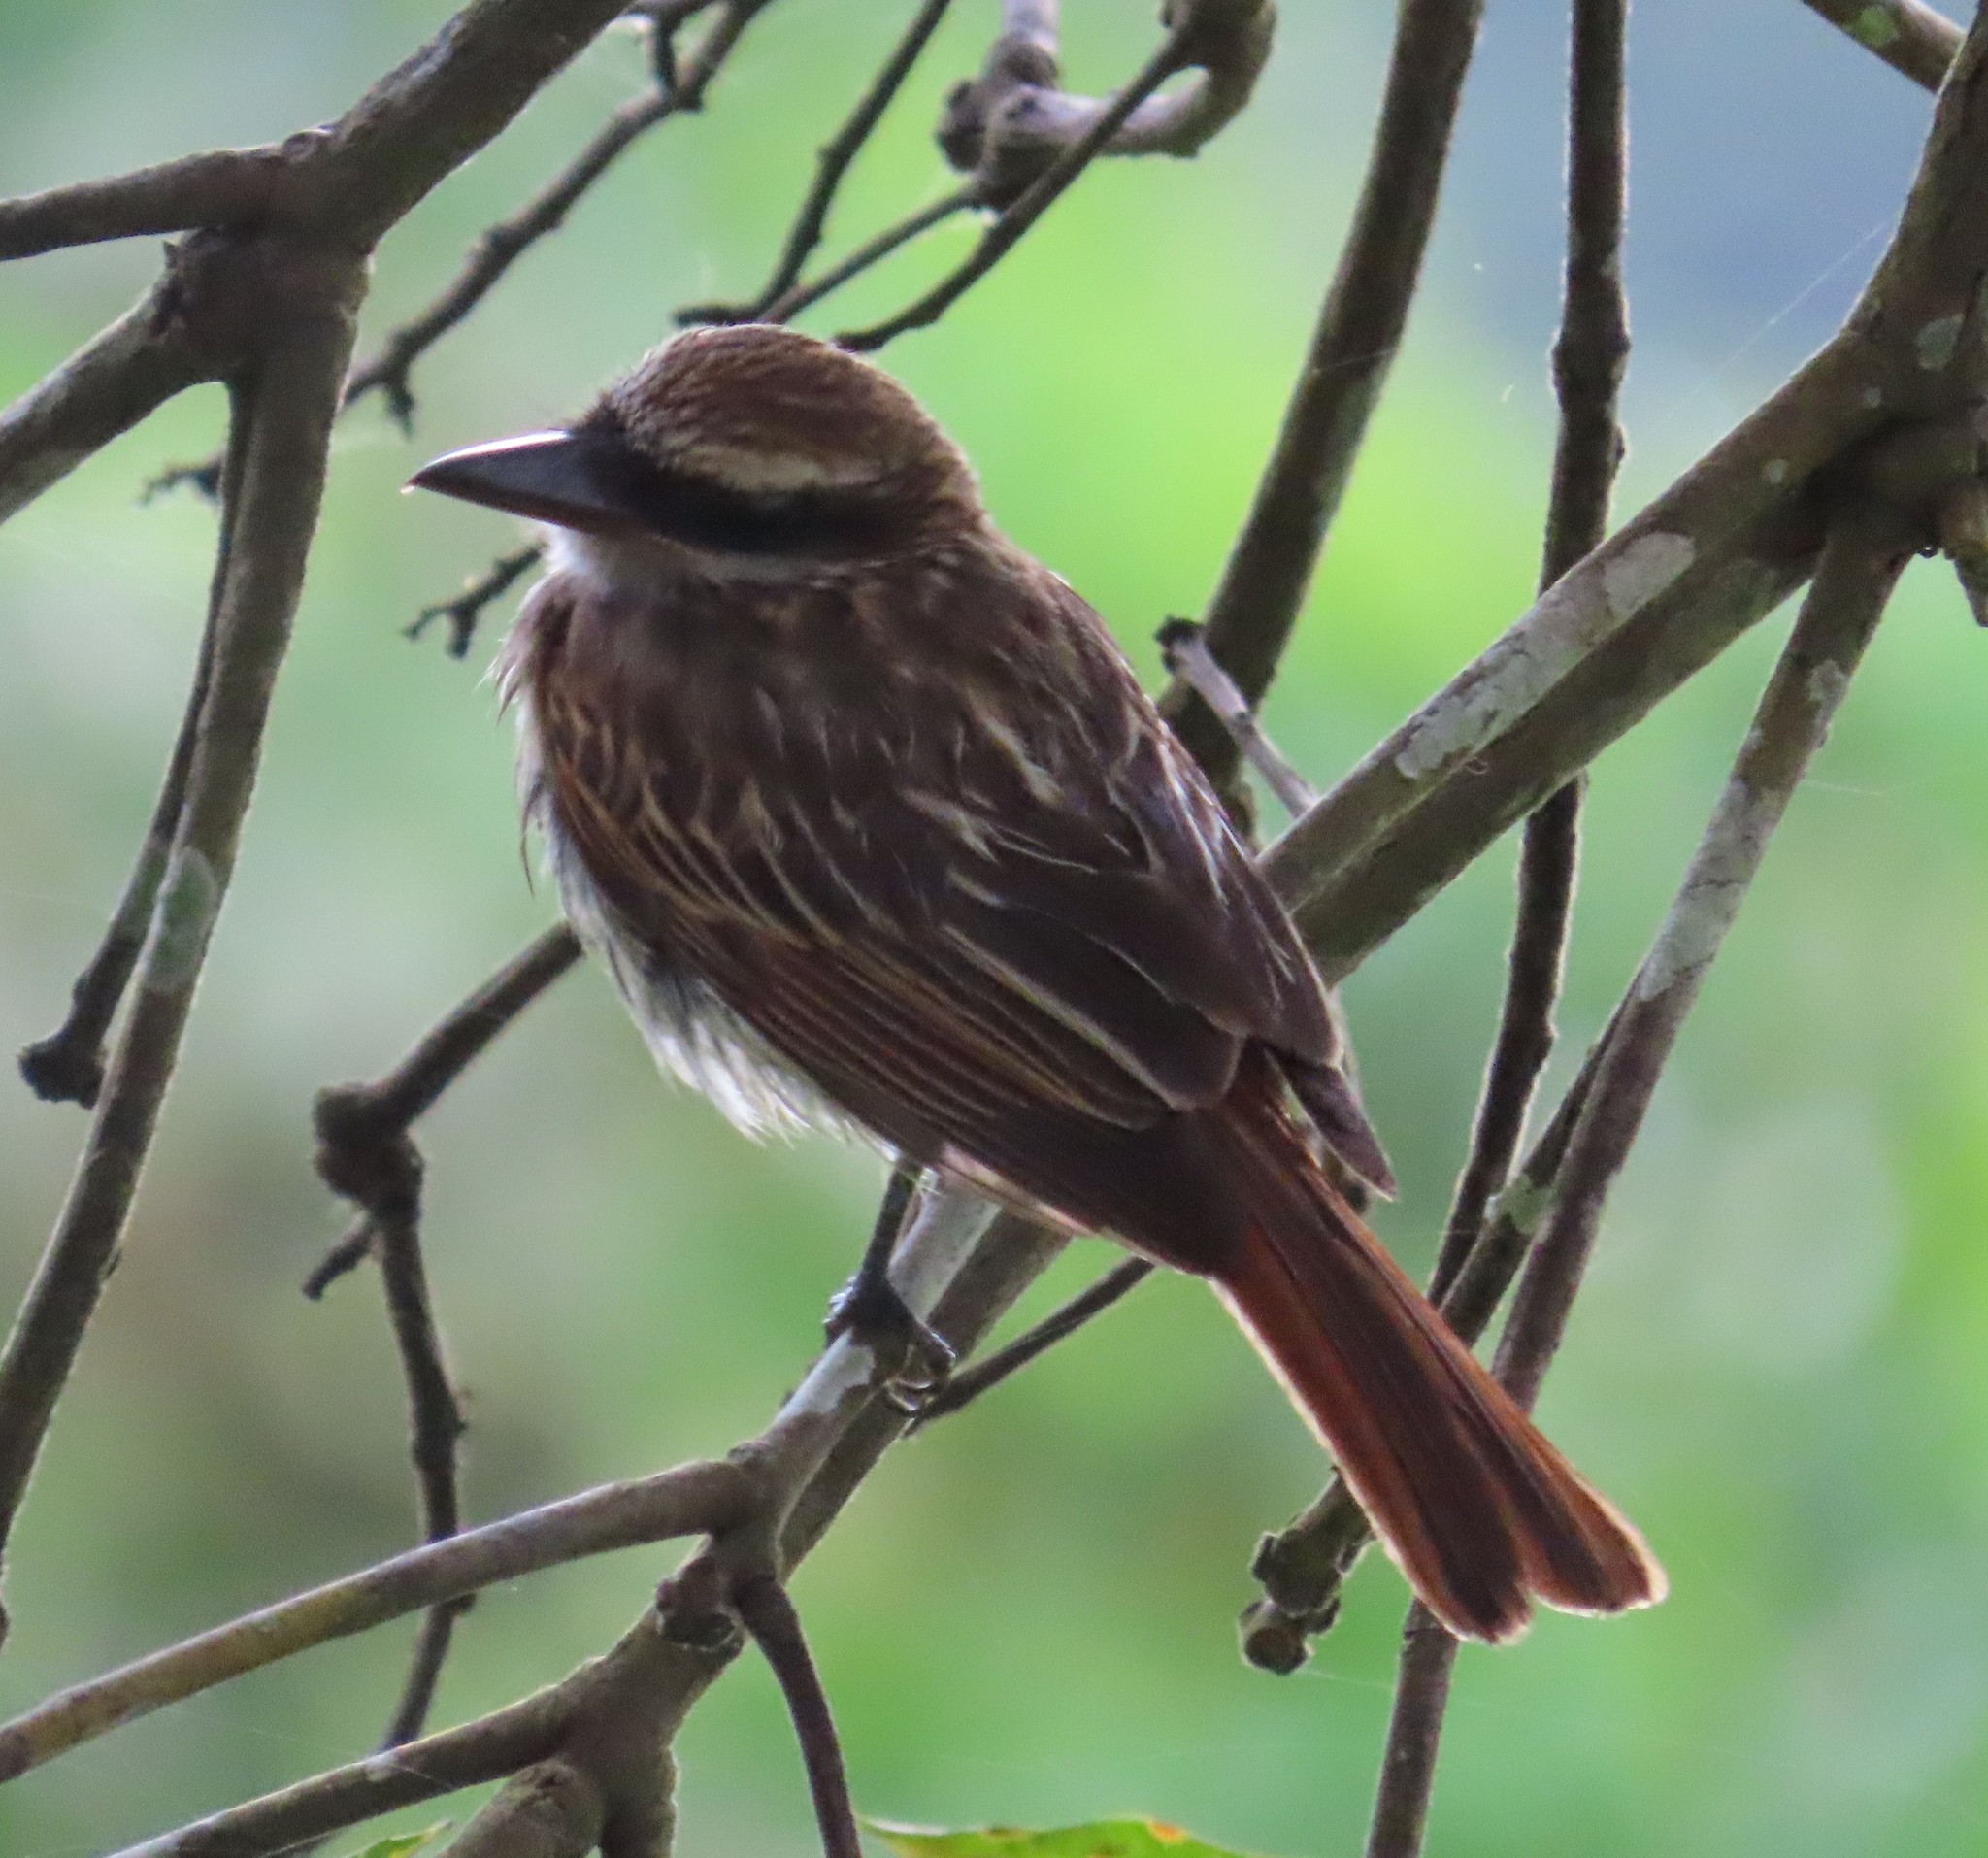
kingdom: Animalia
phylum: Chordata
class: Aves
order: Passeriformes
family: Tyrannidae
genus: Myiodynastes
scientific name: Myiodynastes maculatus
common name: Streaked flycatcher
